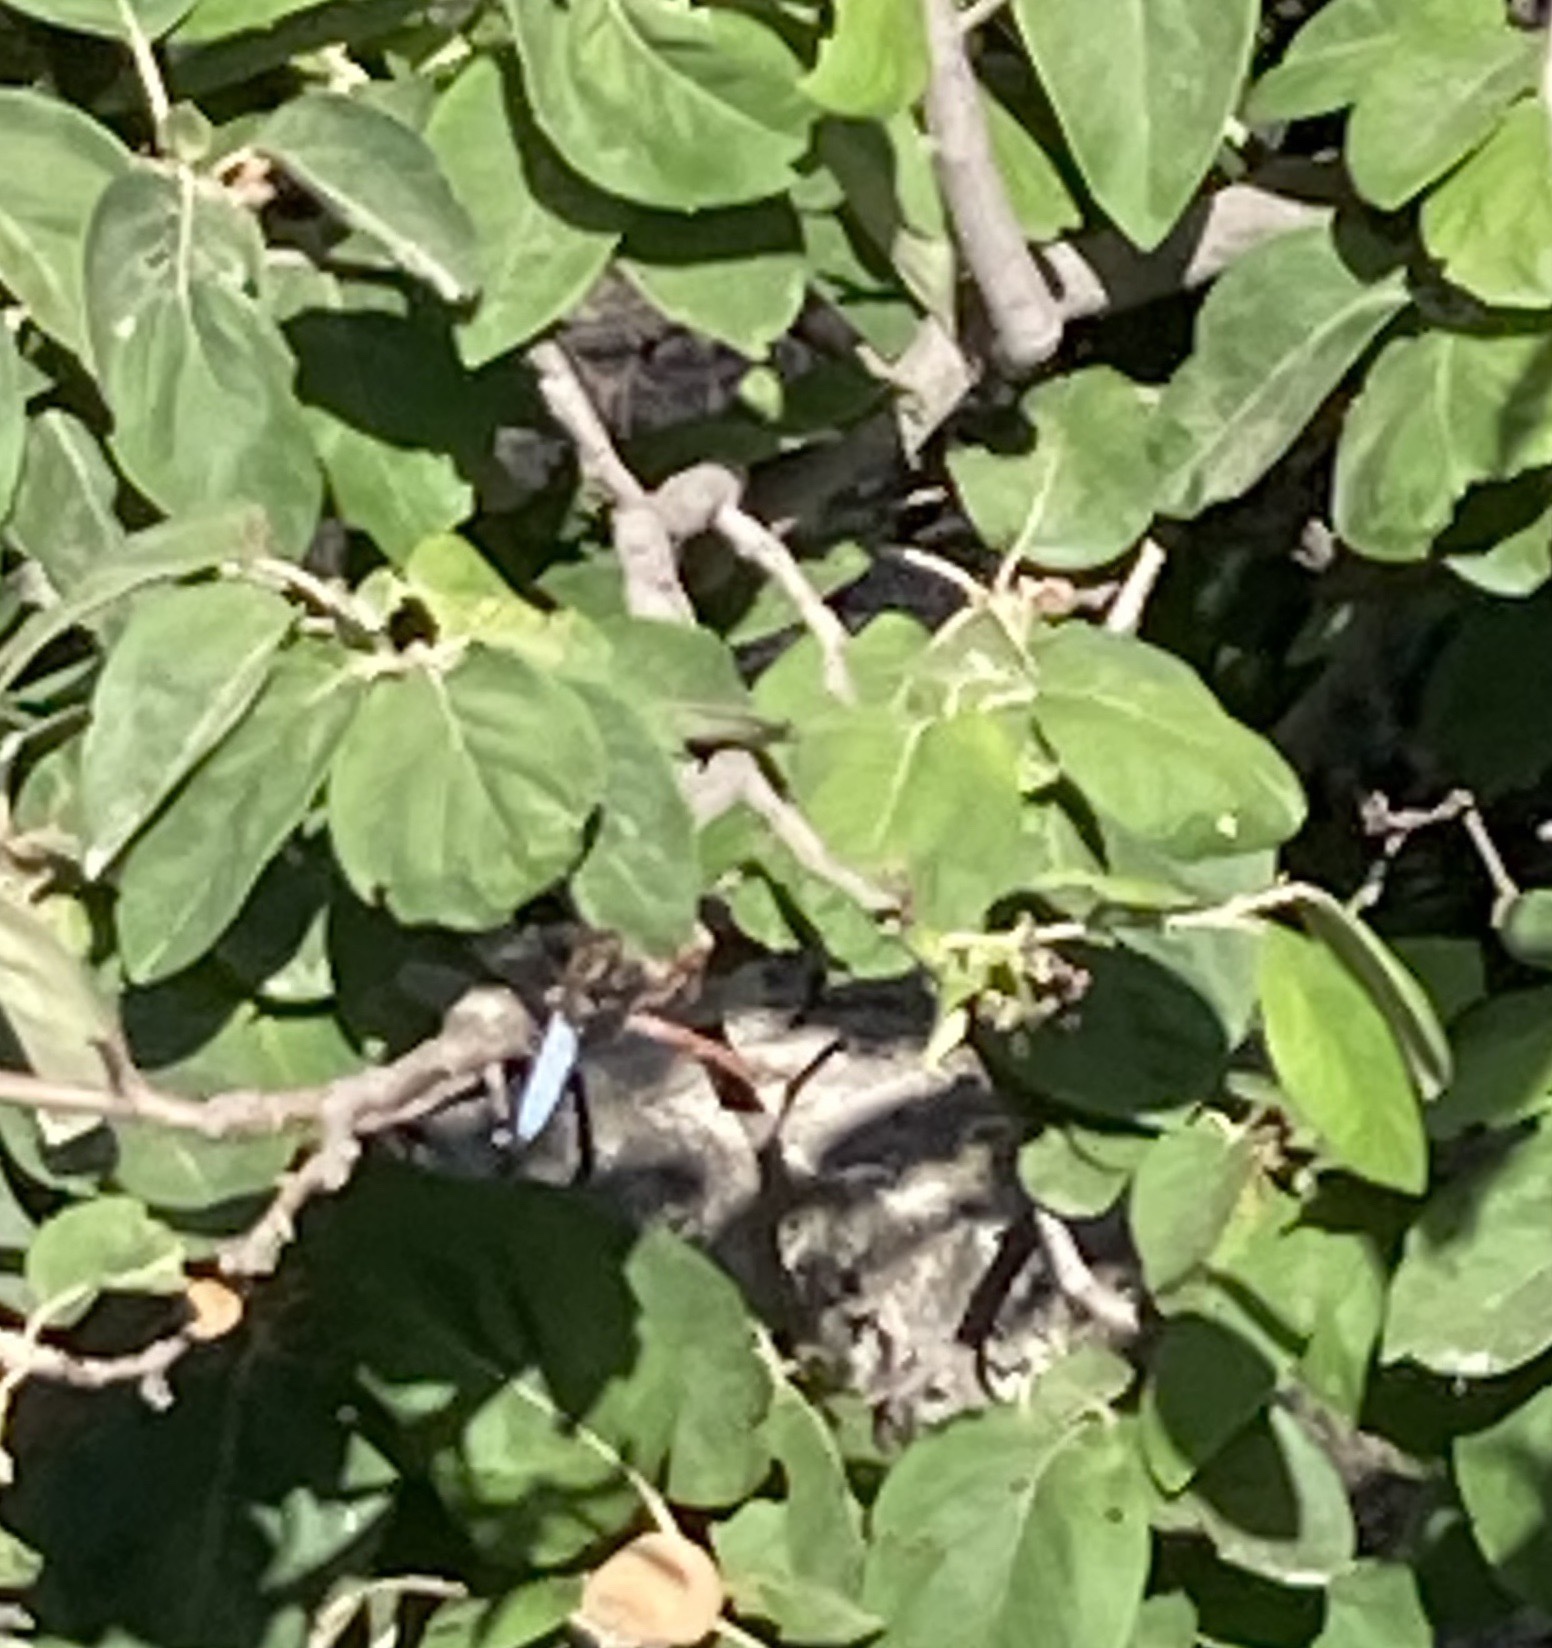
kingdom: Animalia
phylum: Arthropoda
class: Insecta
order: Odonata
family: Libellulidae
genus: Libellula
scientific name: Libellula depressa
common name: Broad-bodied chaser
